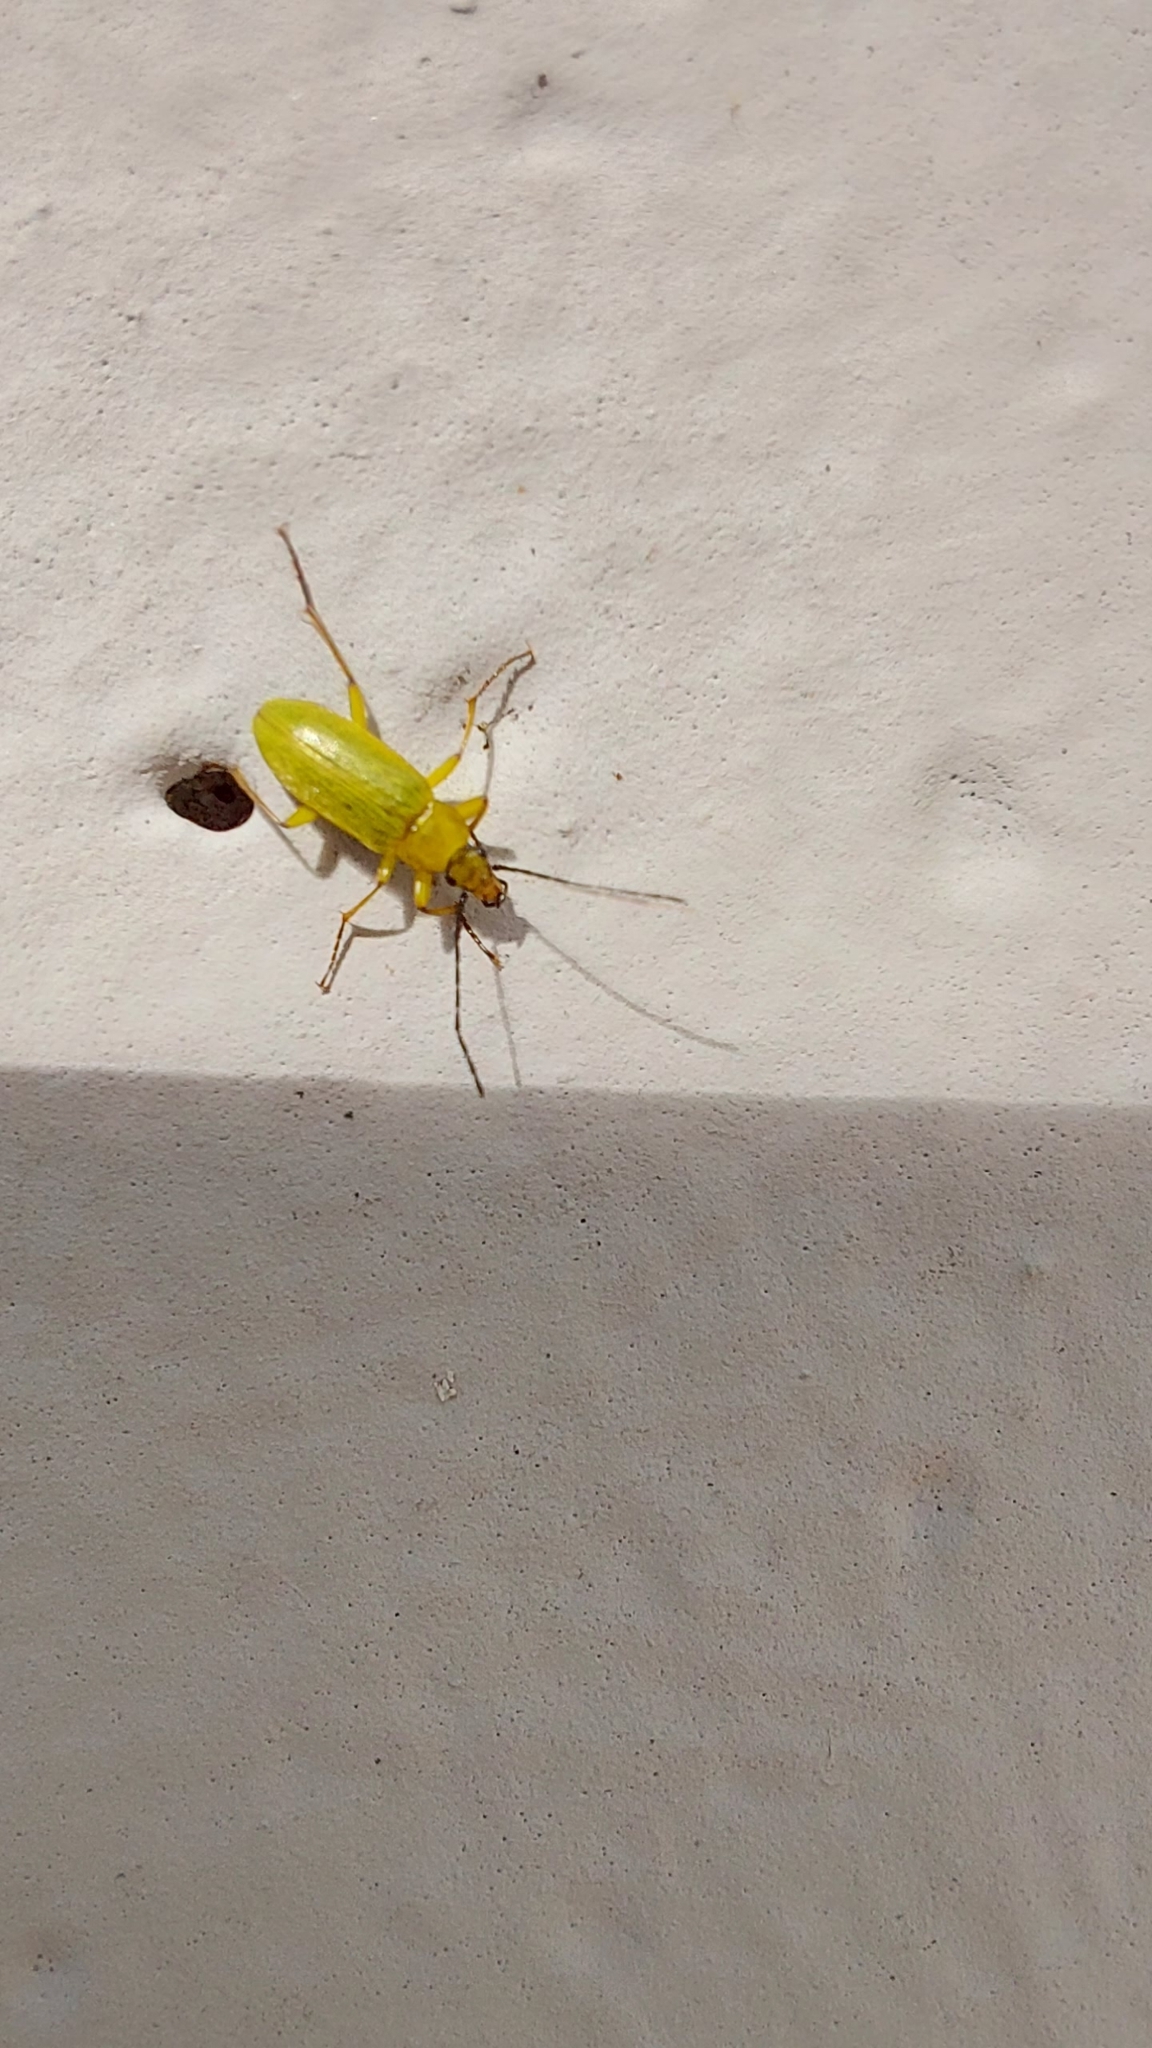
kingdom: Animalia
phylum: Arthropoda
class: Insecta
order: Coleoptera
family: Tenebrionidae
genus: Cteniopus
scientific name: Cteniopus sulphureus
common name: Sulphur beetle
